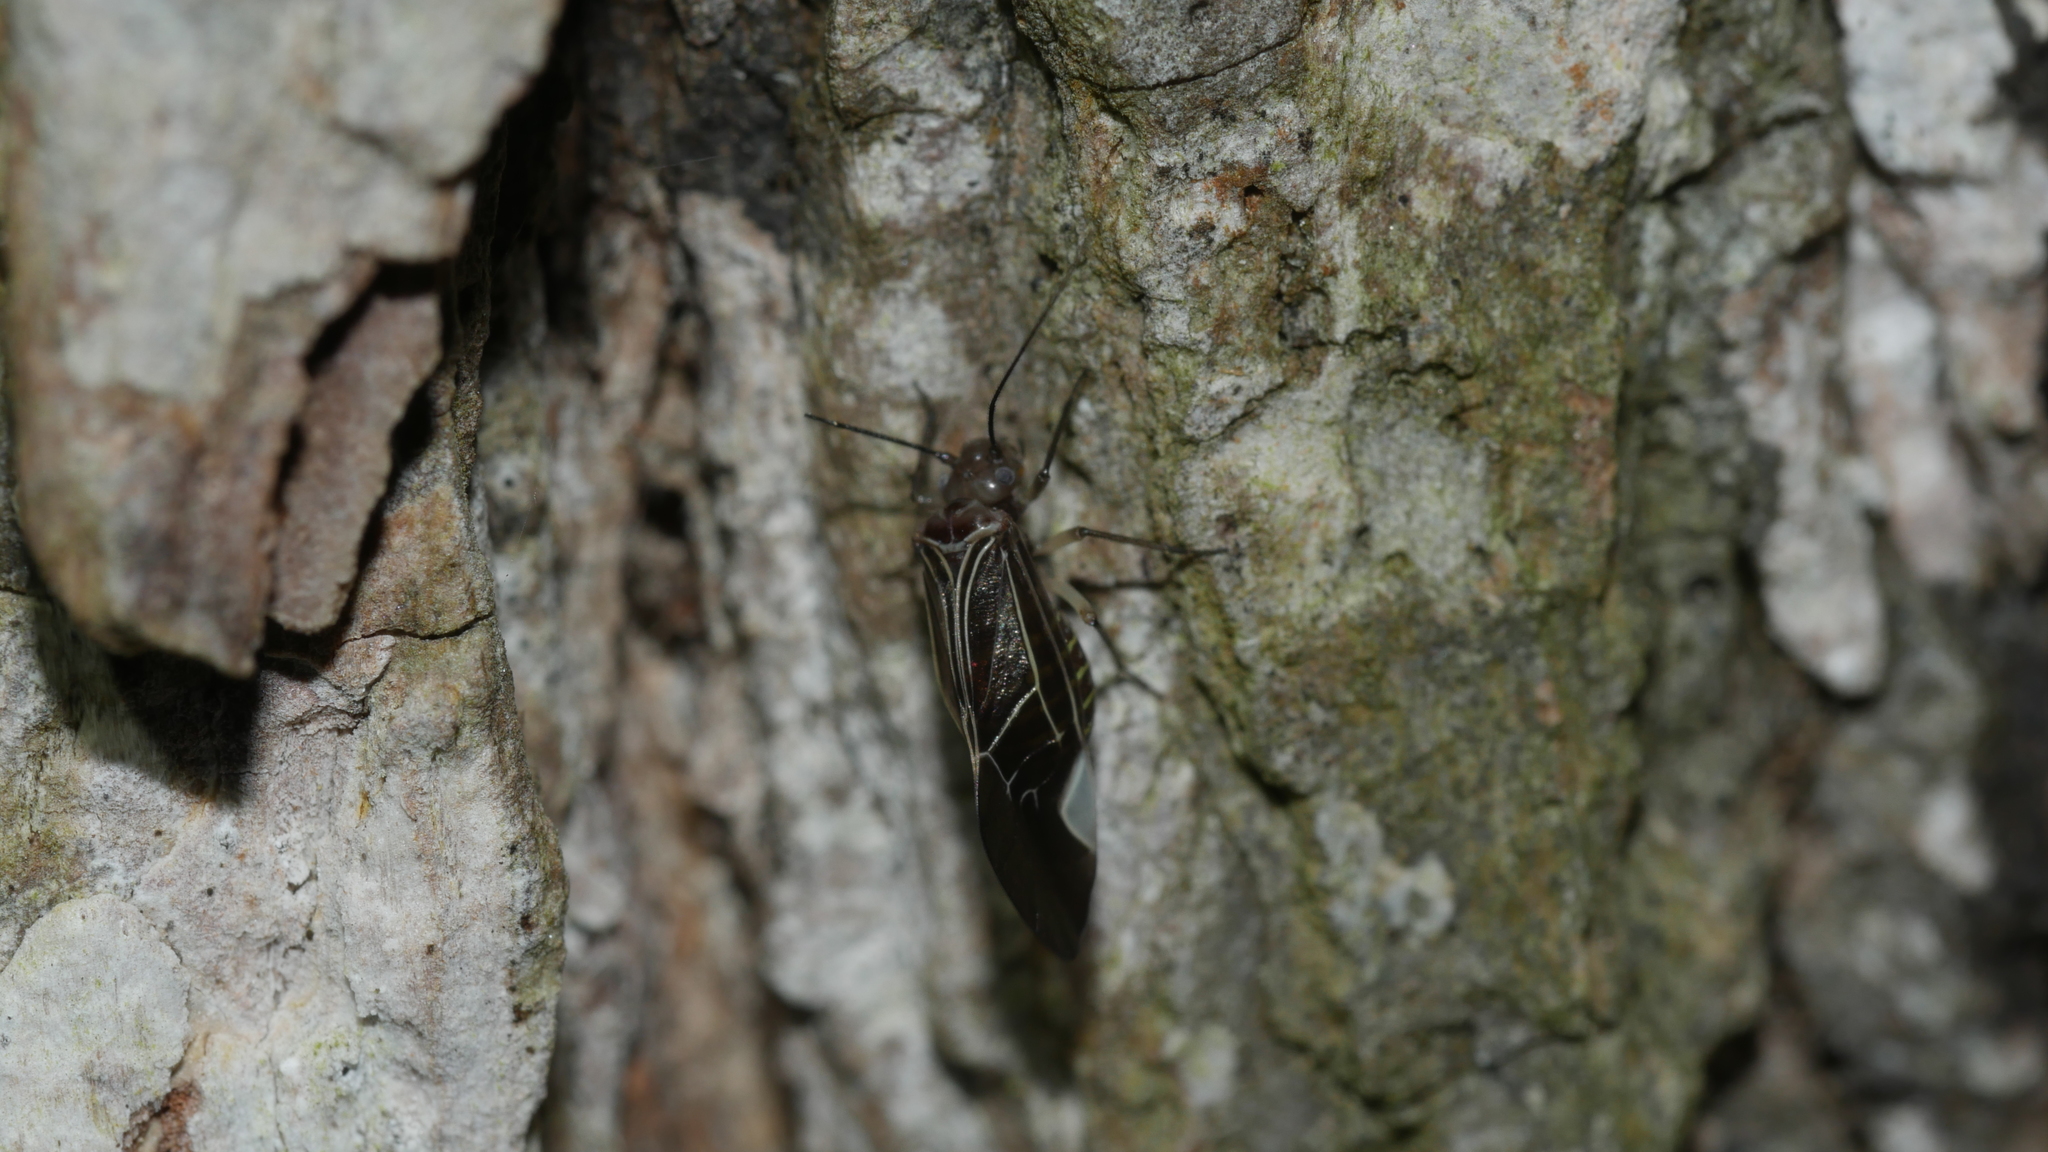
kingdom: Animalia
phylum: Arthropoda
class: Insecta
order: Psocodea
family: Psocidae
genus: Cerastipsocus
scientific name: Cerastipsocus venosus
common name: Tree cattle
